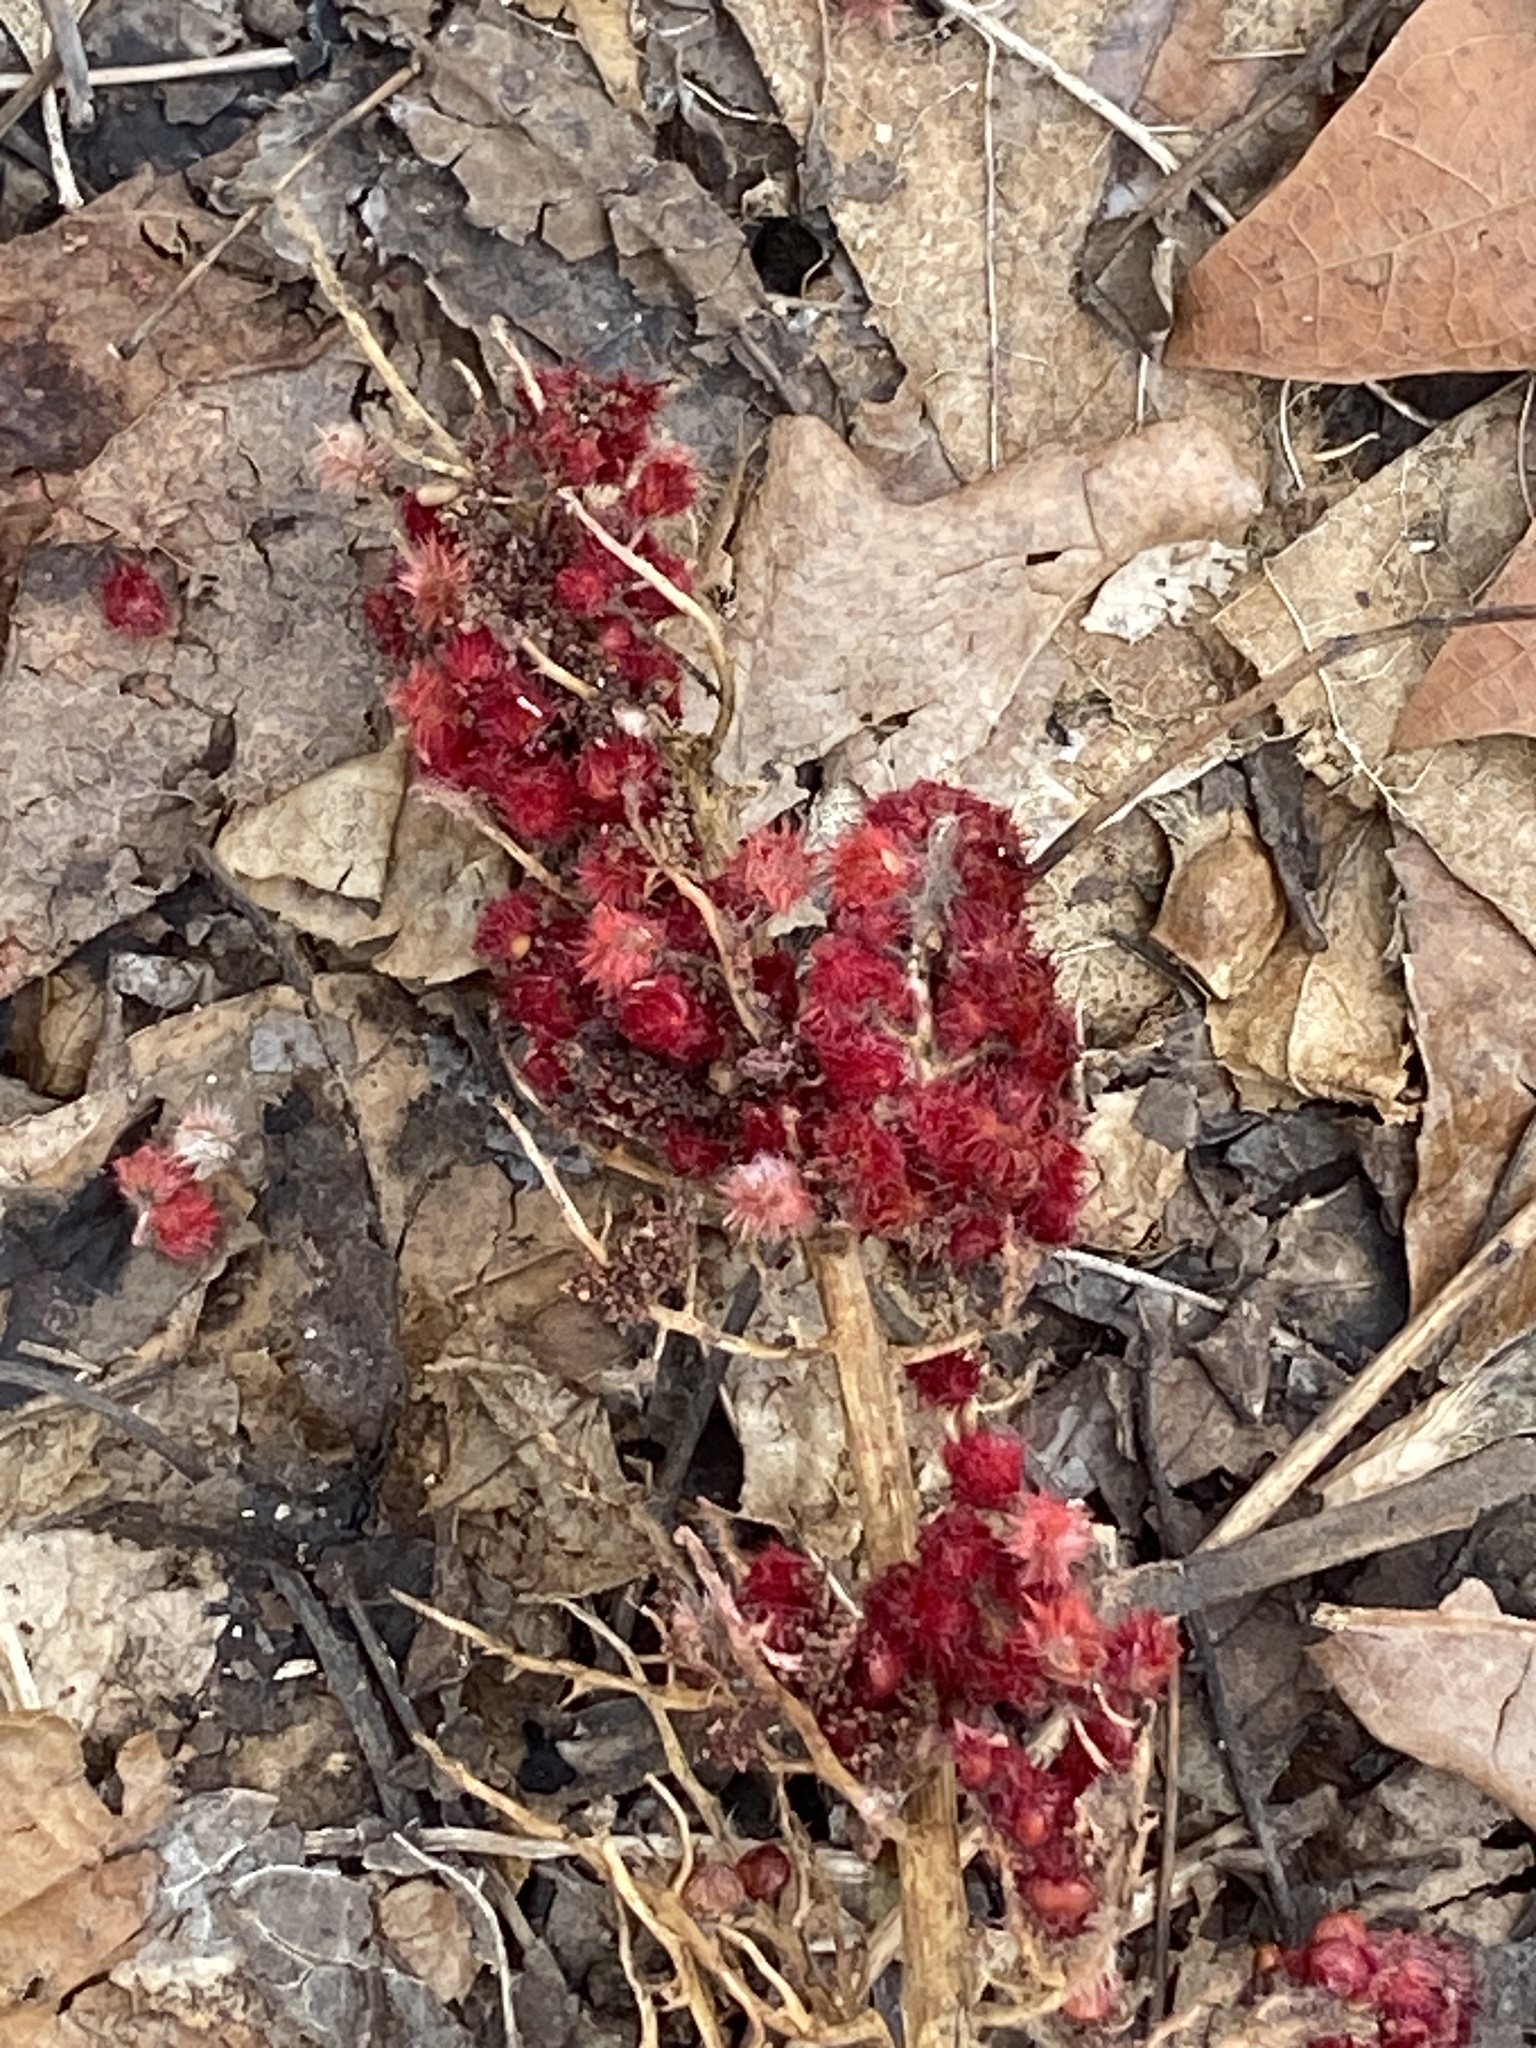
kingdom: Plantae
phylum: Tracheophyta
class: Magnoliopsida
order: Sapindales
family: Anacardiaceae
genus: Rhus
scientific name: Rhus typhina
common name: Staghorn sumac
